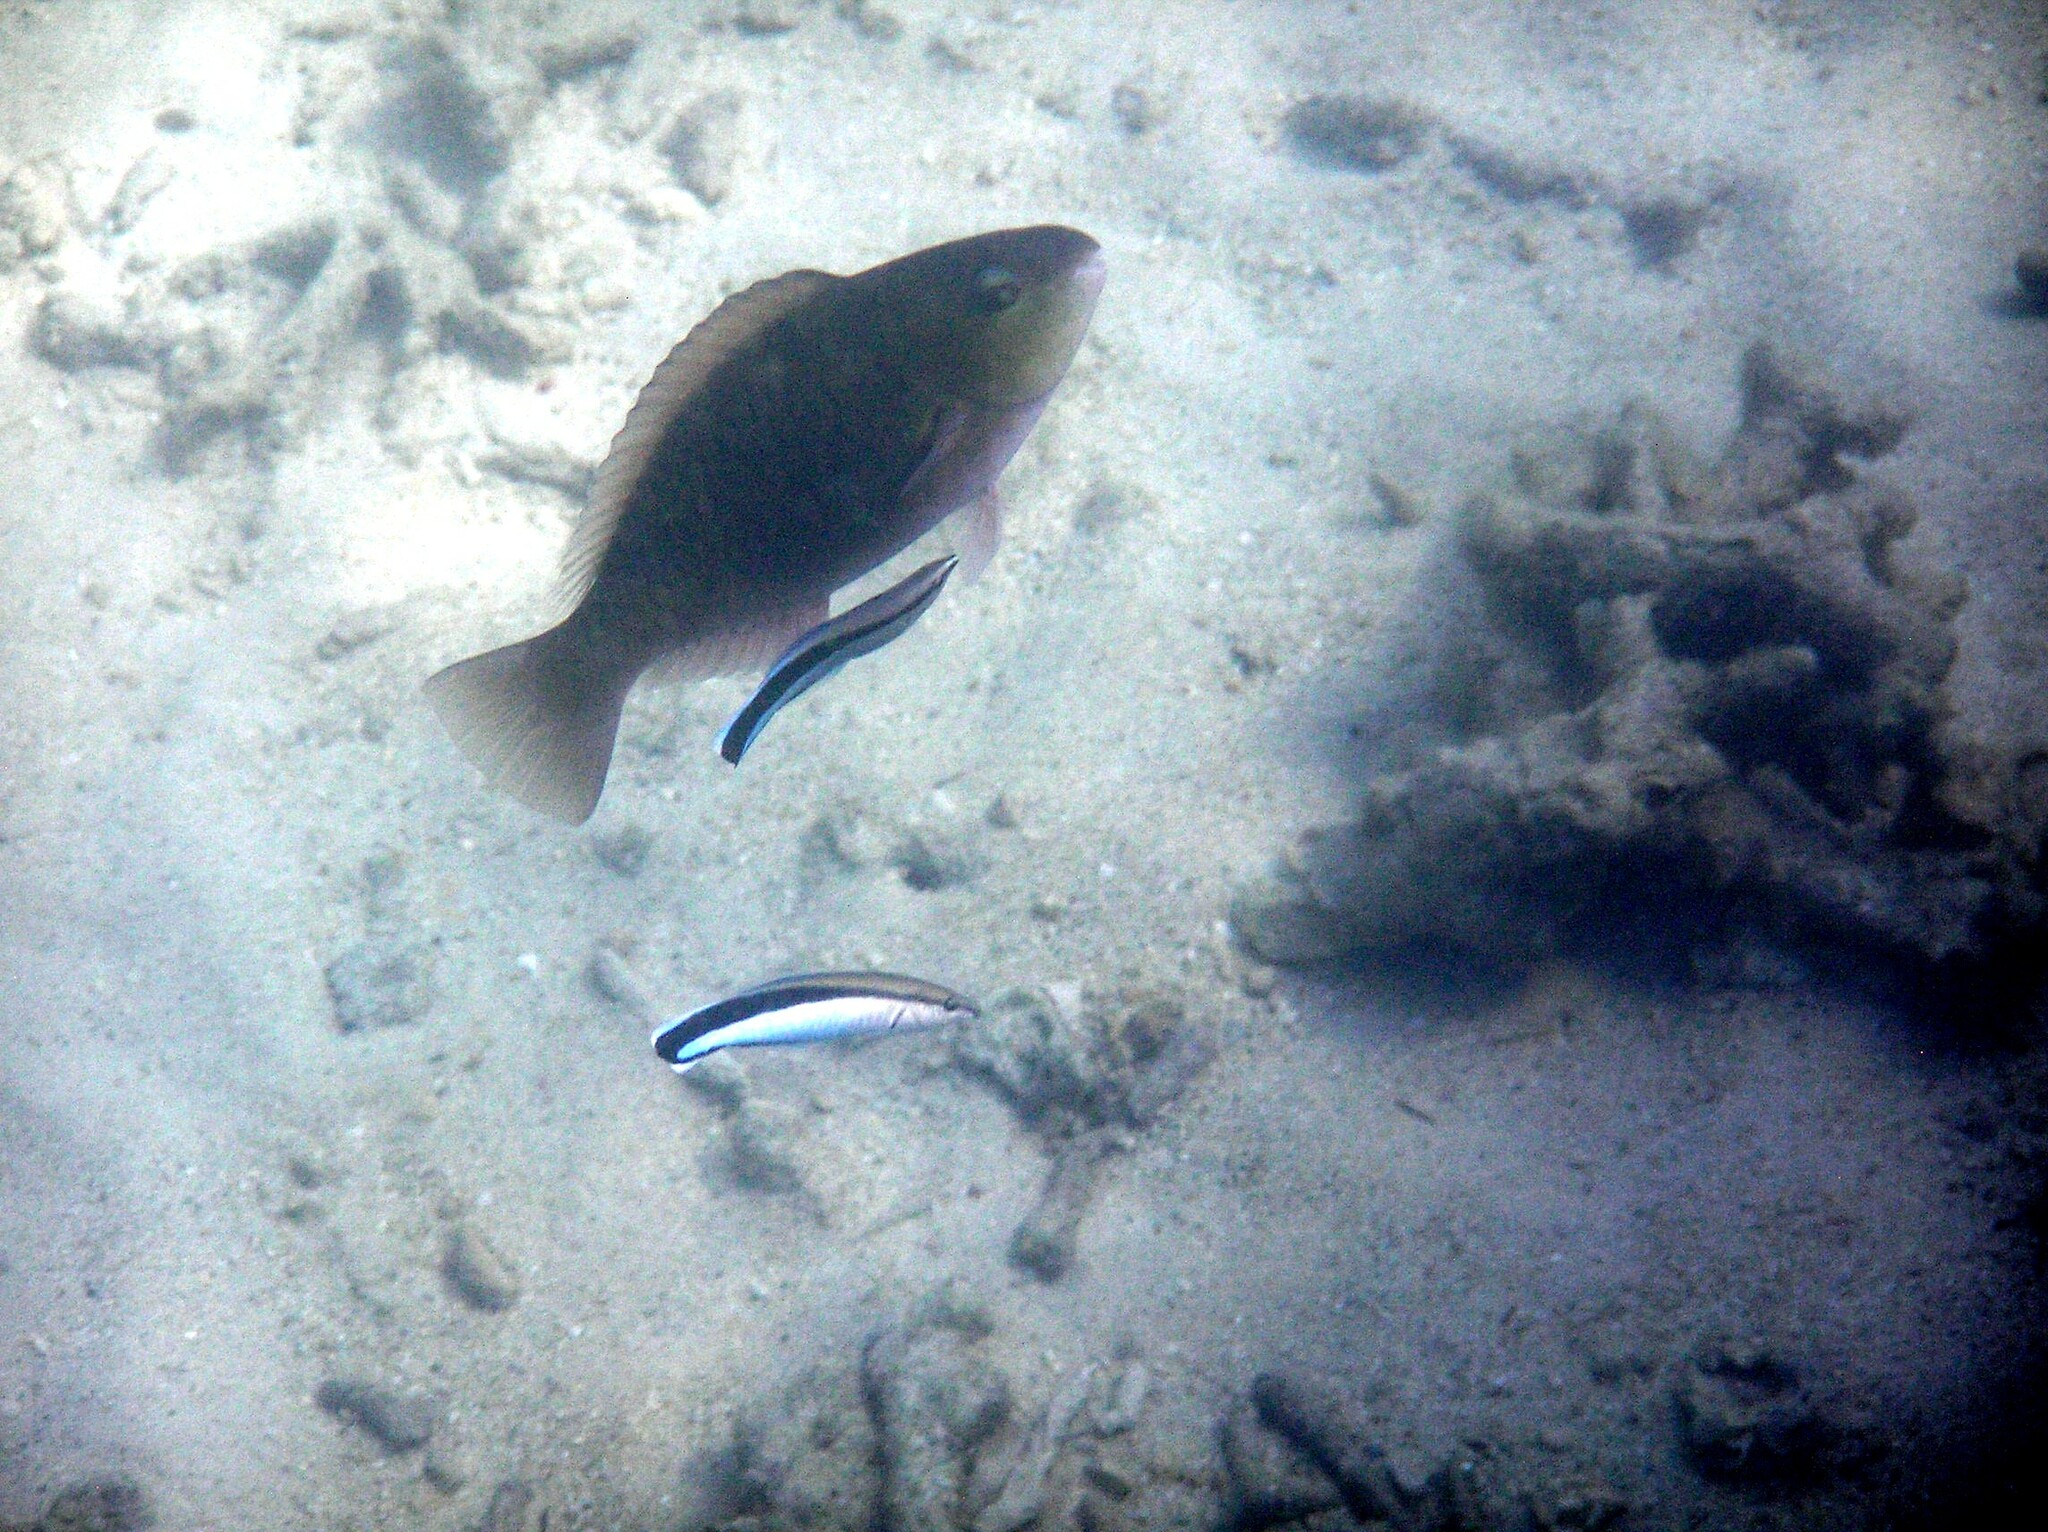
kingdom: Animalia
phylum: Chordata
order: Perciformes
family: Labridae
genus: Labroides
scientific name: Labroides dimidiatus
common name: Blue diesel wrasse
